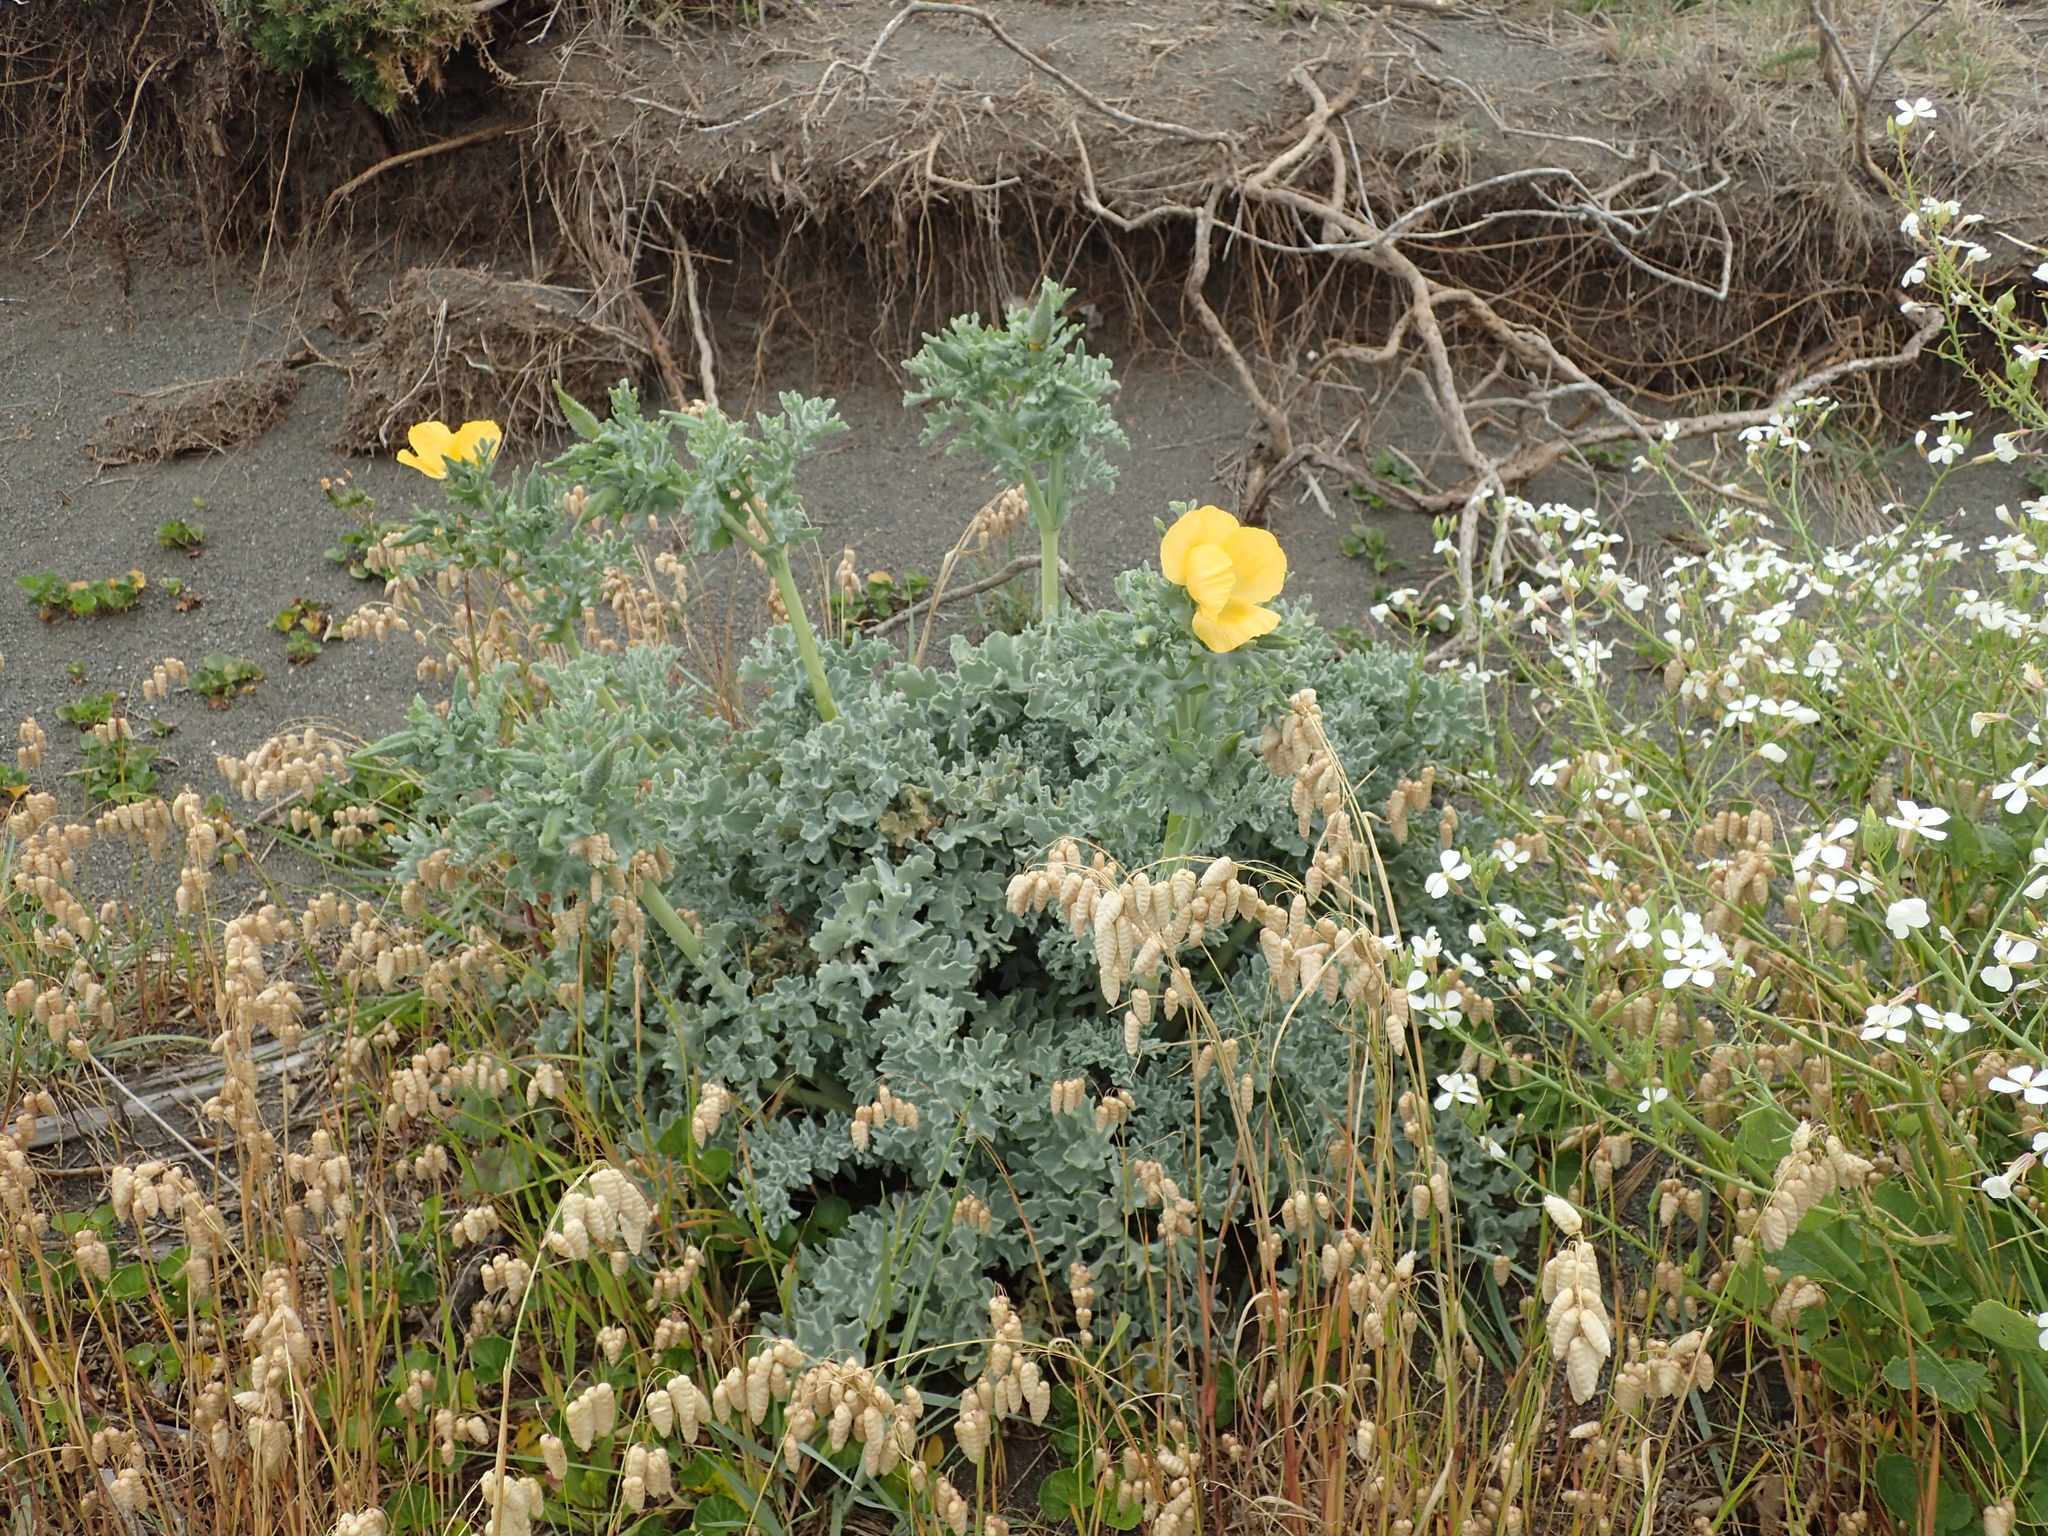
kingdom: Plantae
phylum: Tracheophyta
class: Magnoliopsida
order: Ranunculales
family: Papaveraceae
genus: Glaucium
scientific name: Glaucium flavum
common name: Yellow horned-poppy
